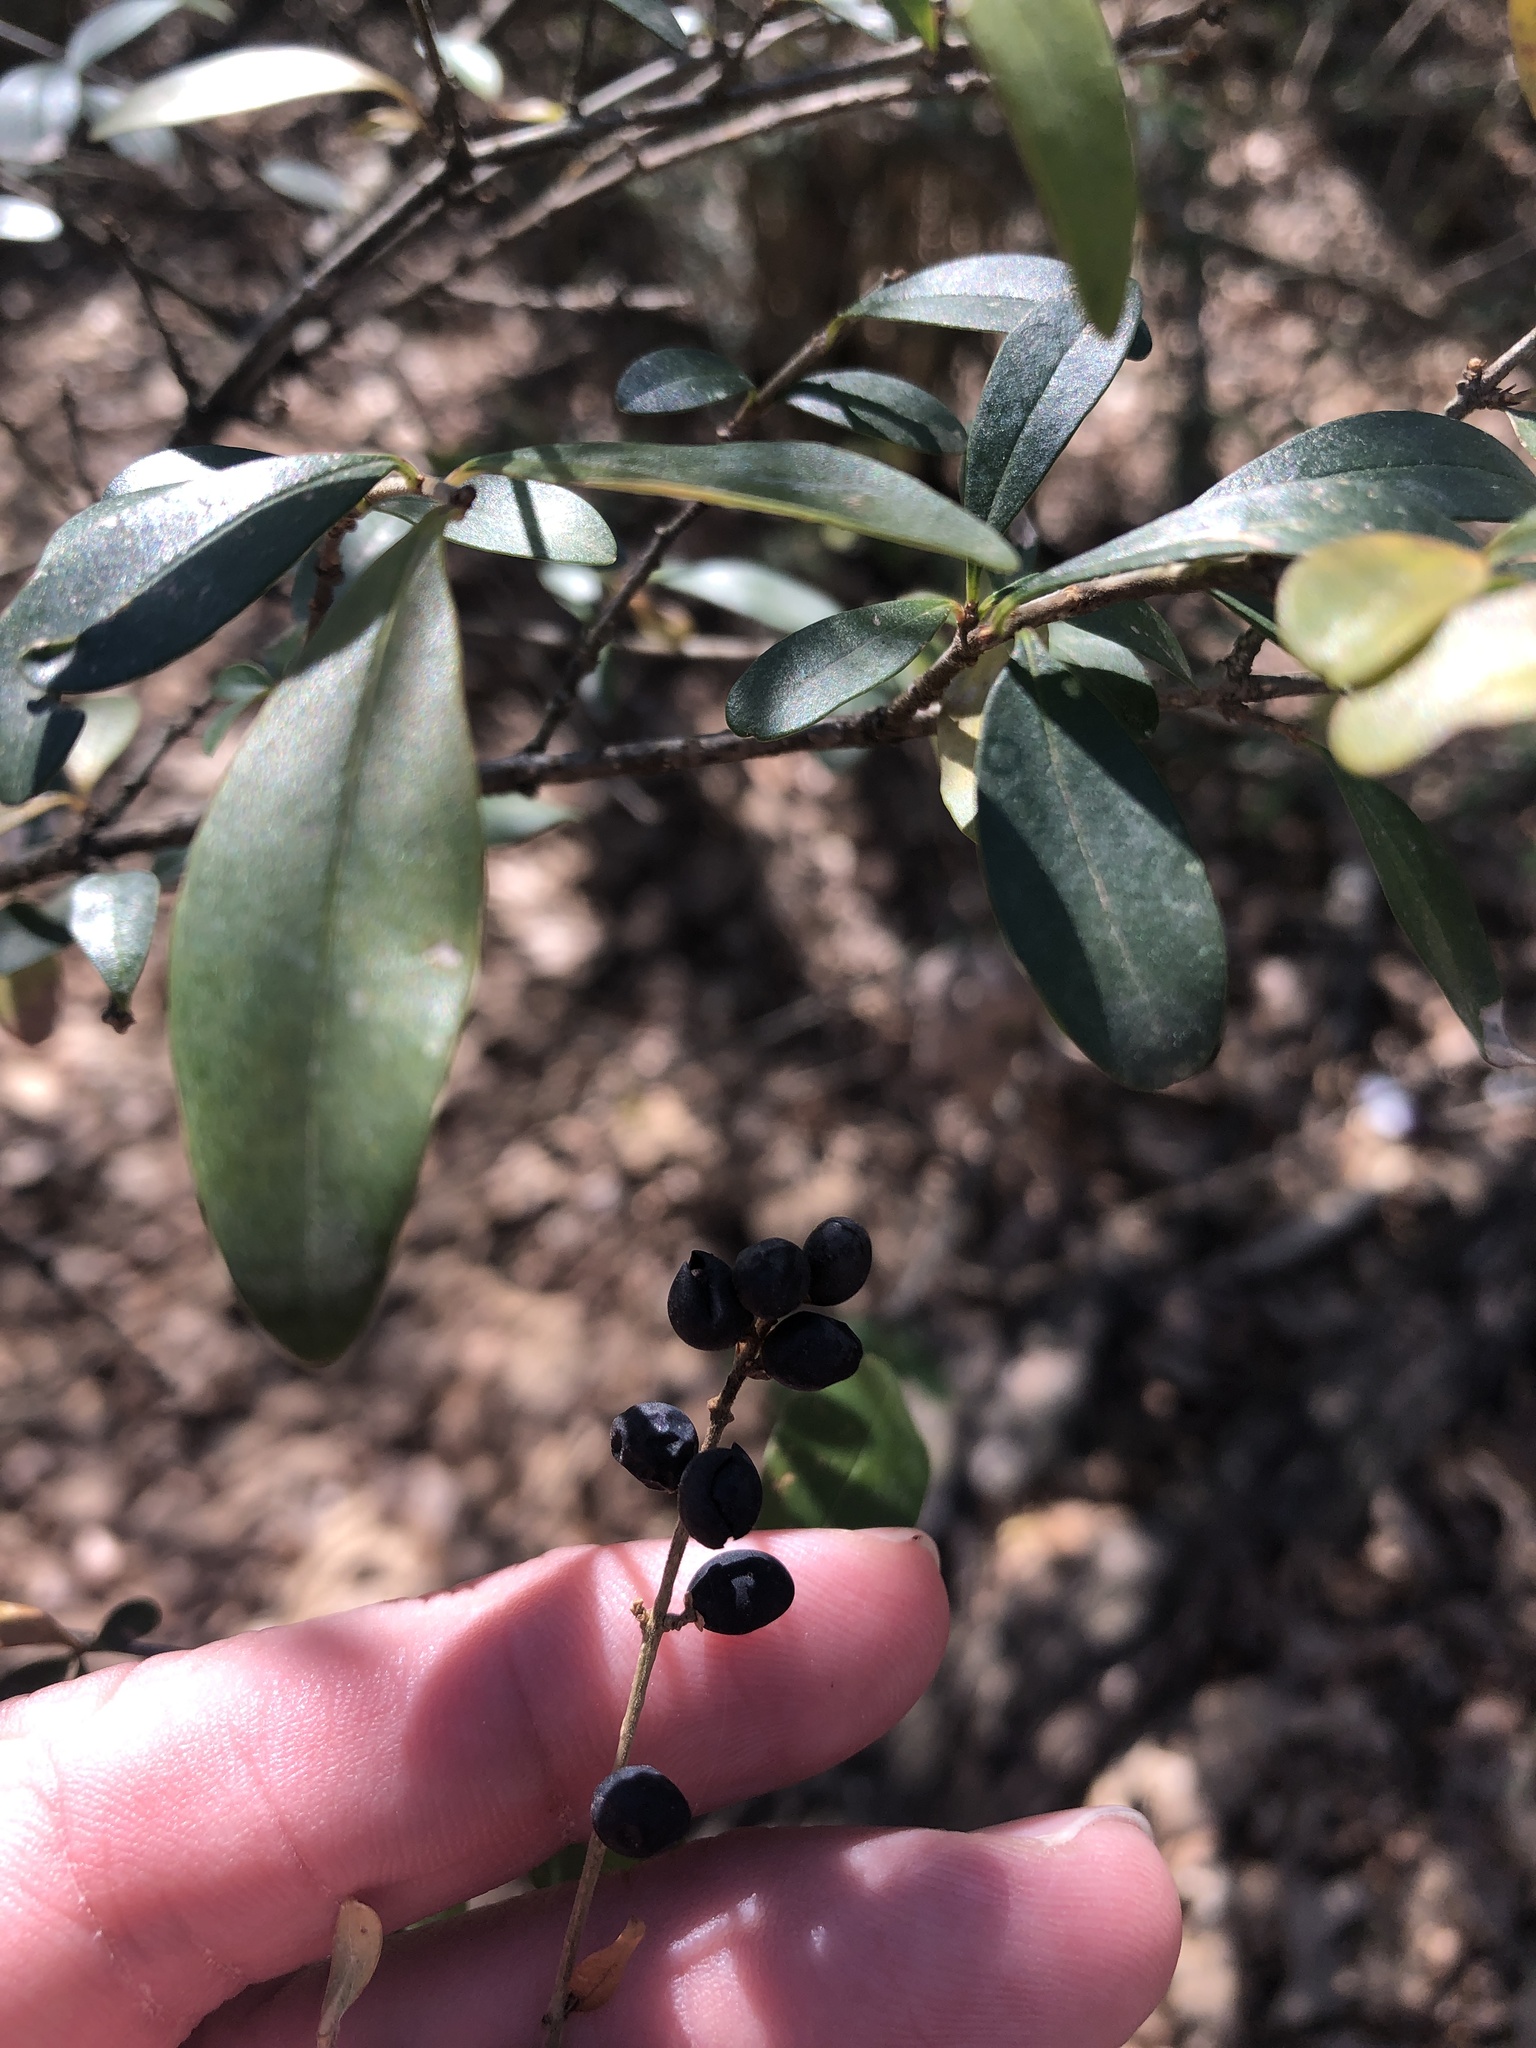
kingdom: Plantae
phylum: Tracheophyta
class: Magnoliopsida
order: Lamiales
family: Oleaceae
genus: Ligustrum
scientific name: Ligustrum quihoui
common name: Waxyleaf privet
